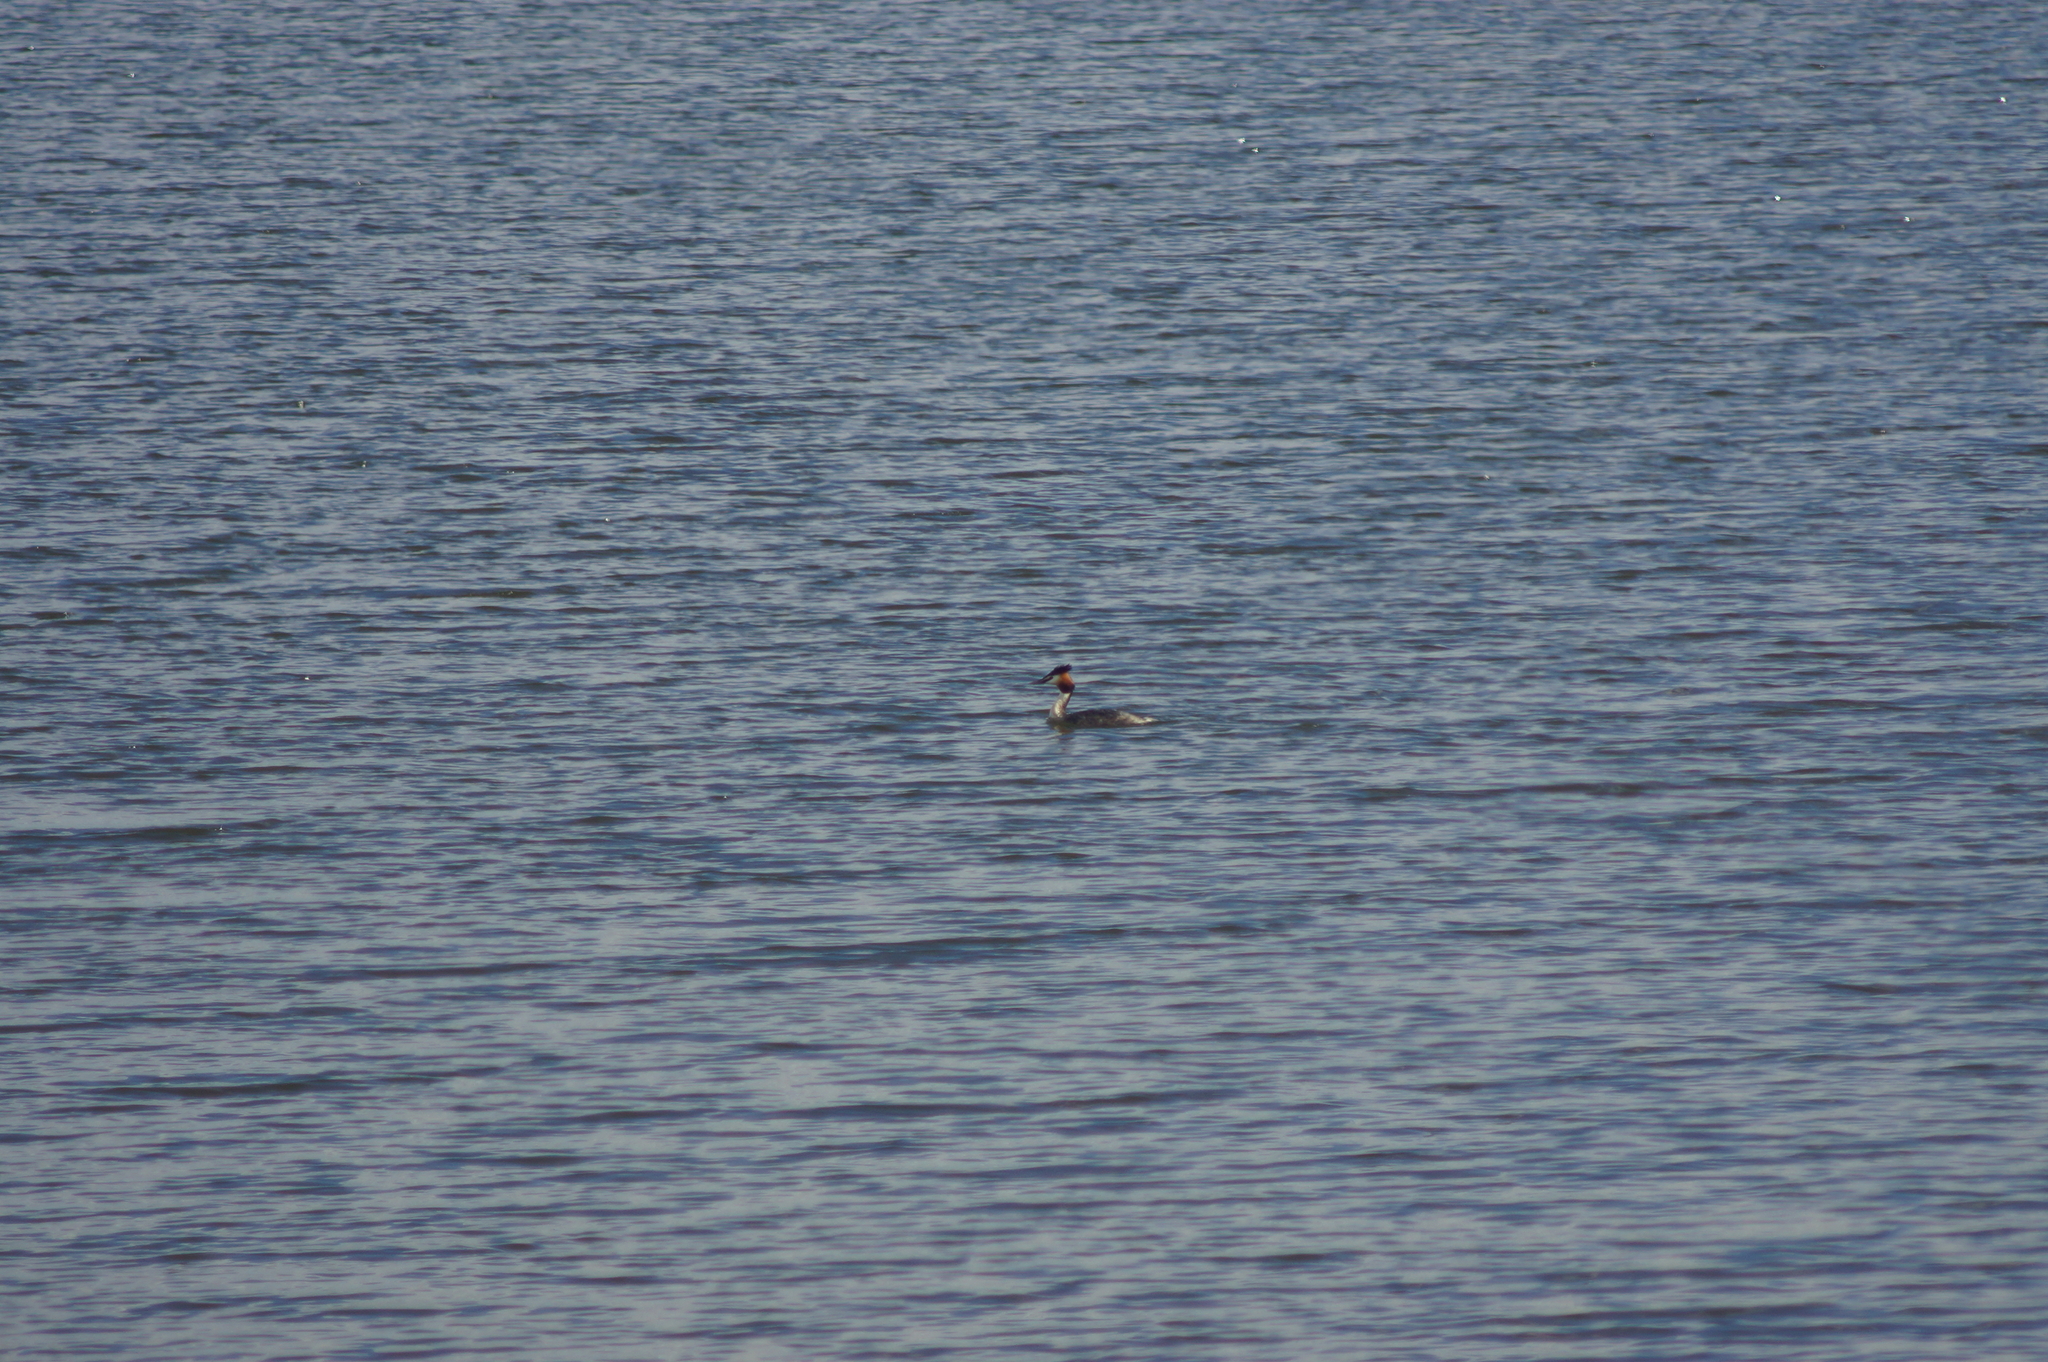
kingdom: Animalia
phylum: Chordata
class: Aves
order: Podicipediformes
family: Podicipedidae
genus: Podiceps
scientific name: Podiceps cristatus
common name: Great crested grebe
